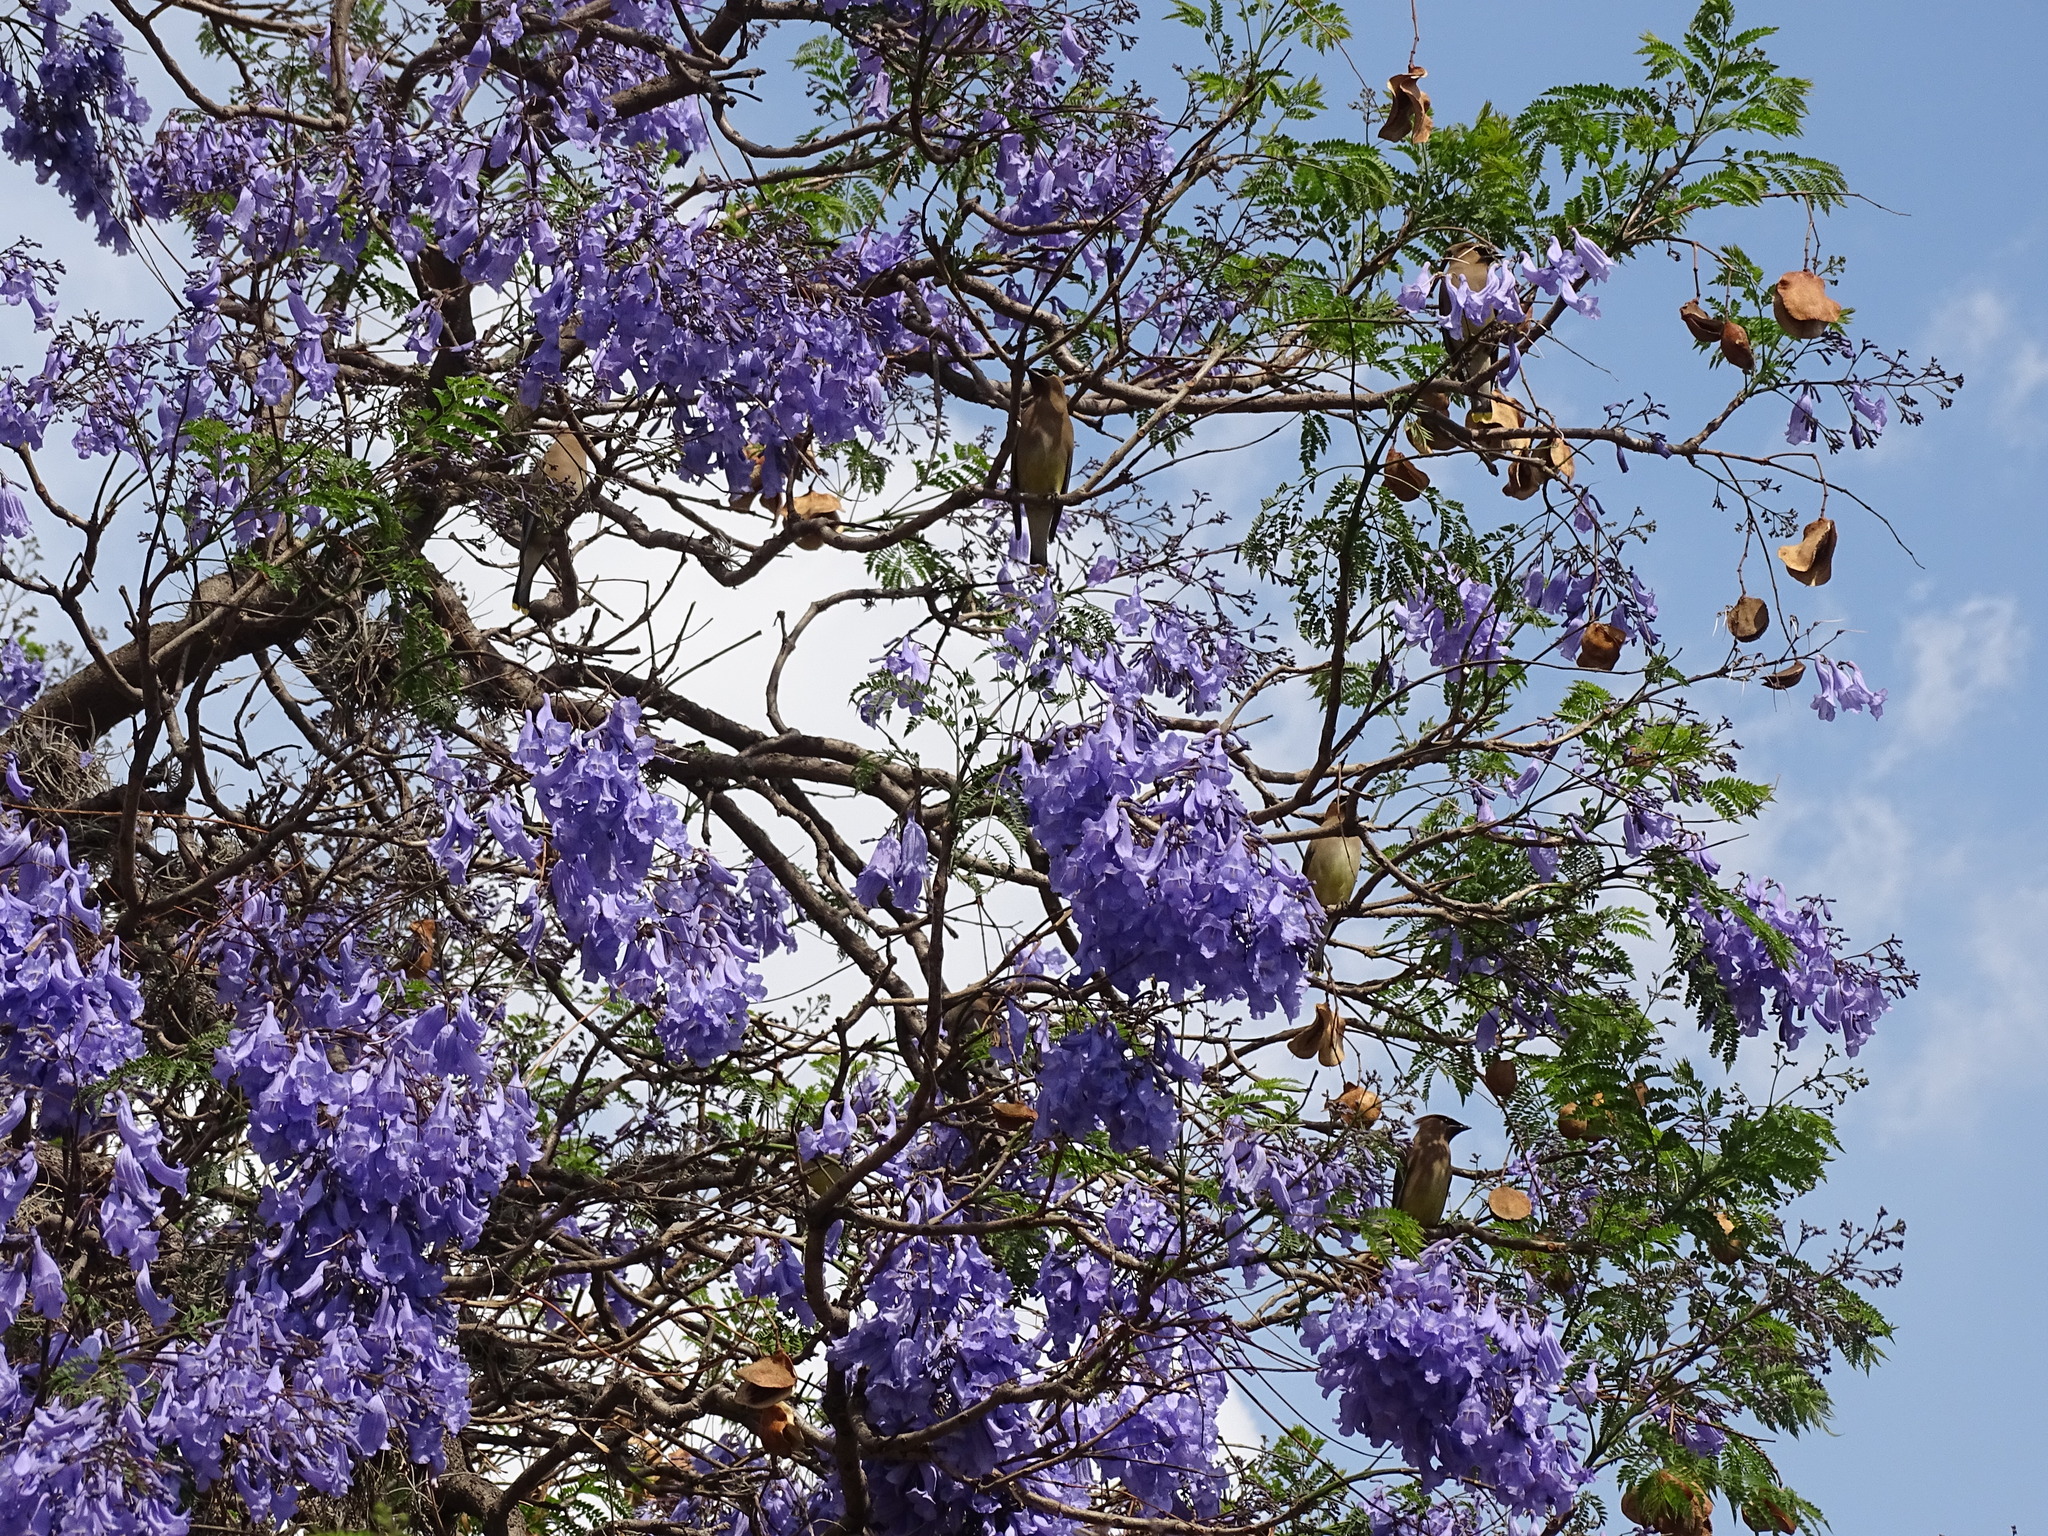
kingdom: Animalia
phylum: Chordata
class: Aves
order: Passeriformes
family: Bombycillidae
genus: Bombycilla
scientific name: Bombycilla cedrorum
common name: Cedar waxwing
